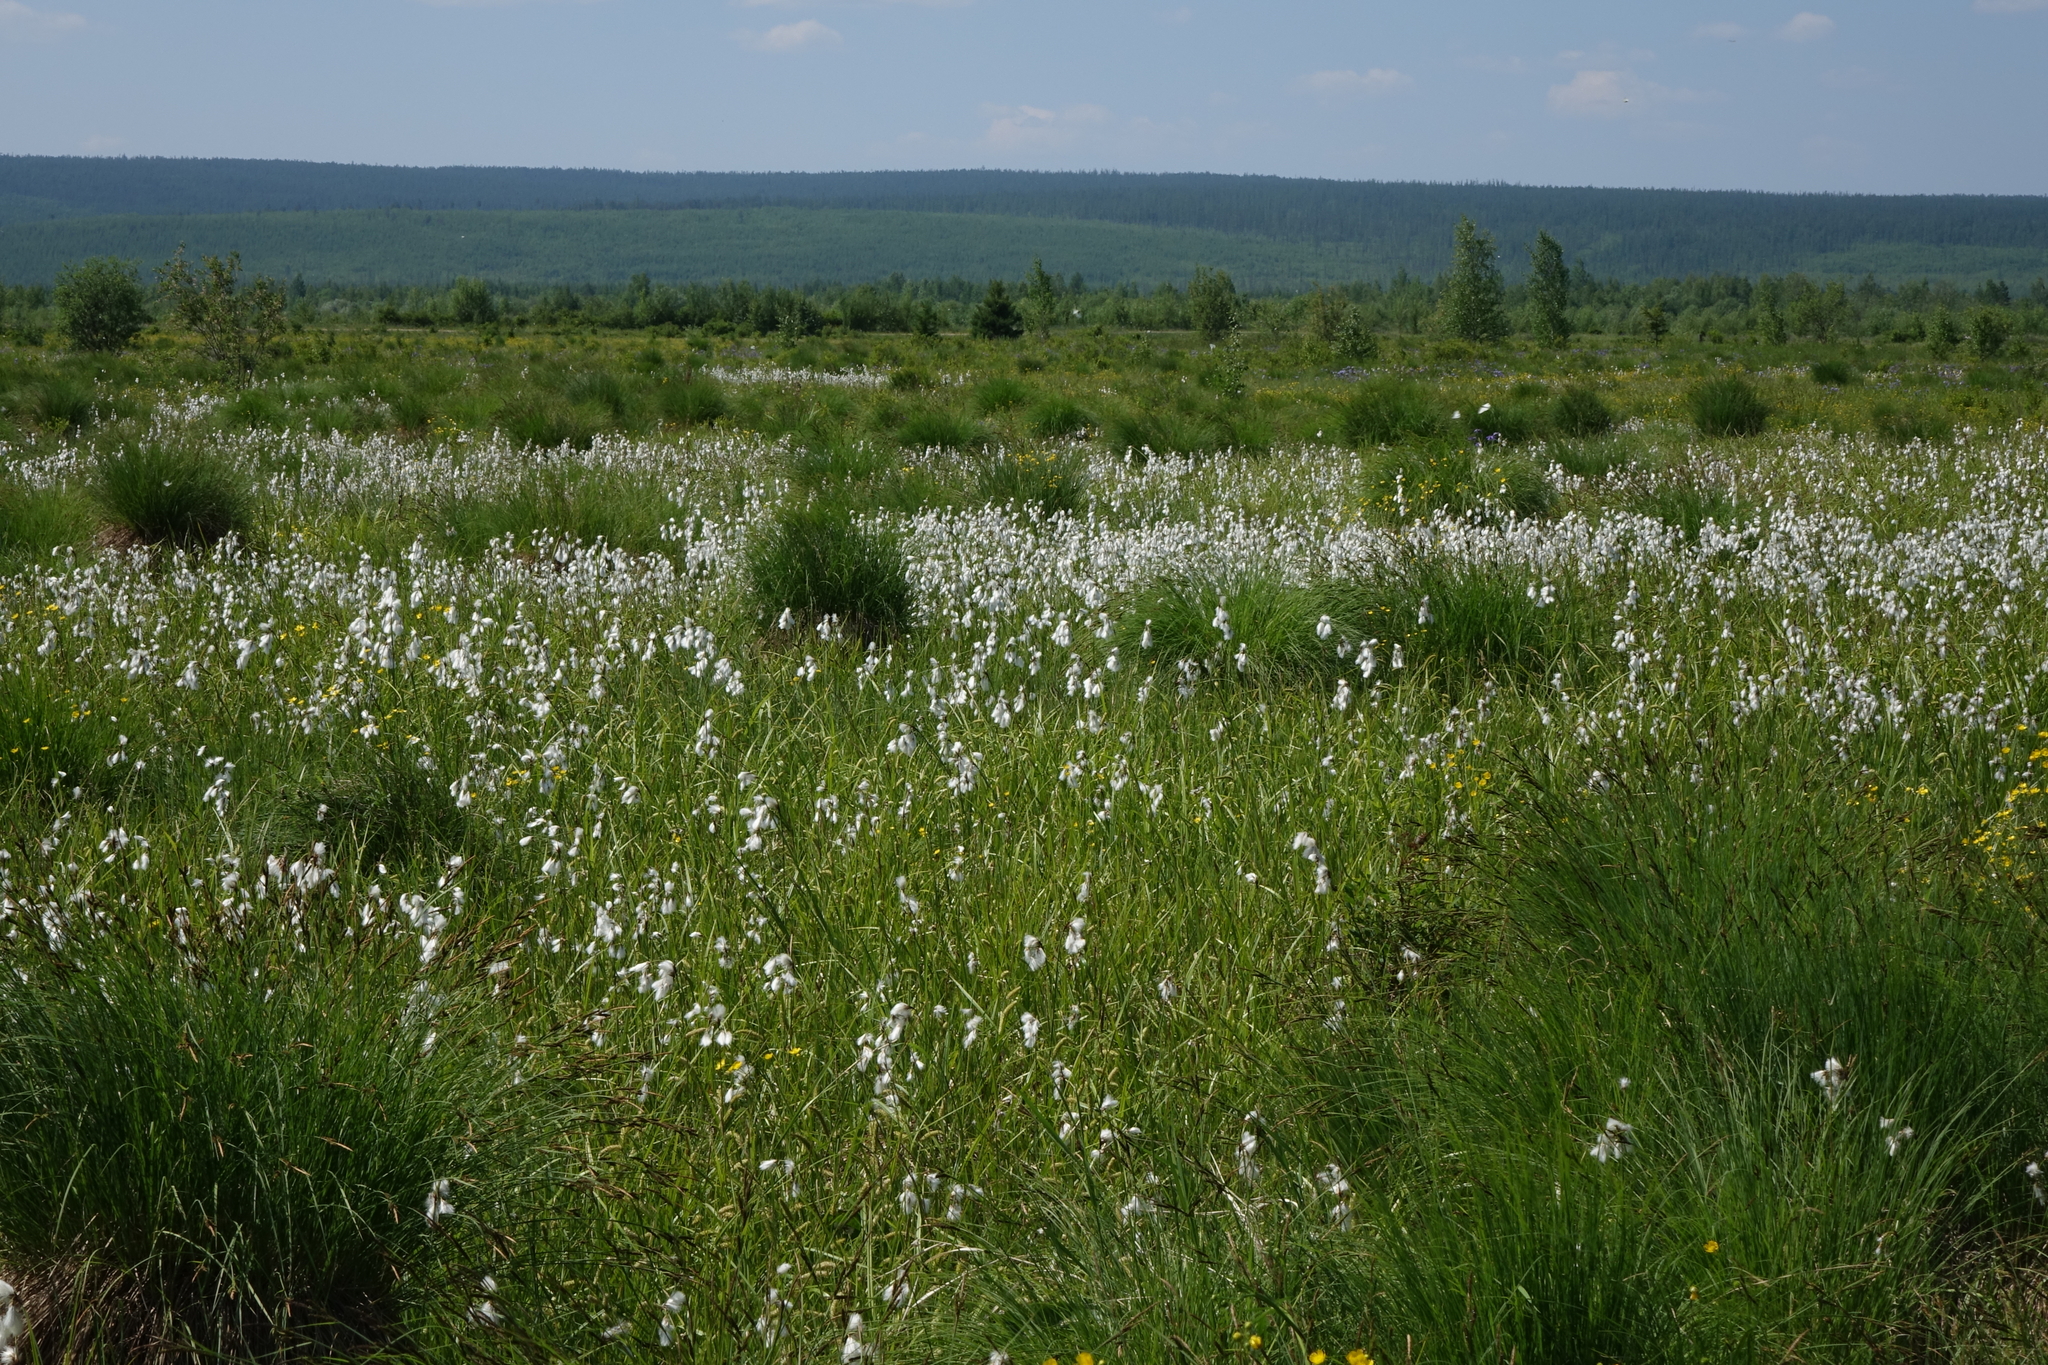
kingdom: Plantae
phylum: Tracheophyta
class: Liliopsida
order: Poales
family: Cyperaceae
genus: Eriophorum
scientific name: Eriophorum angustifolium
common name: Common cottongrass
